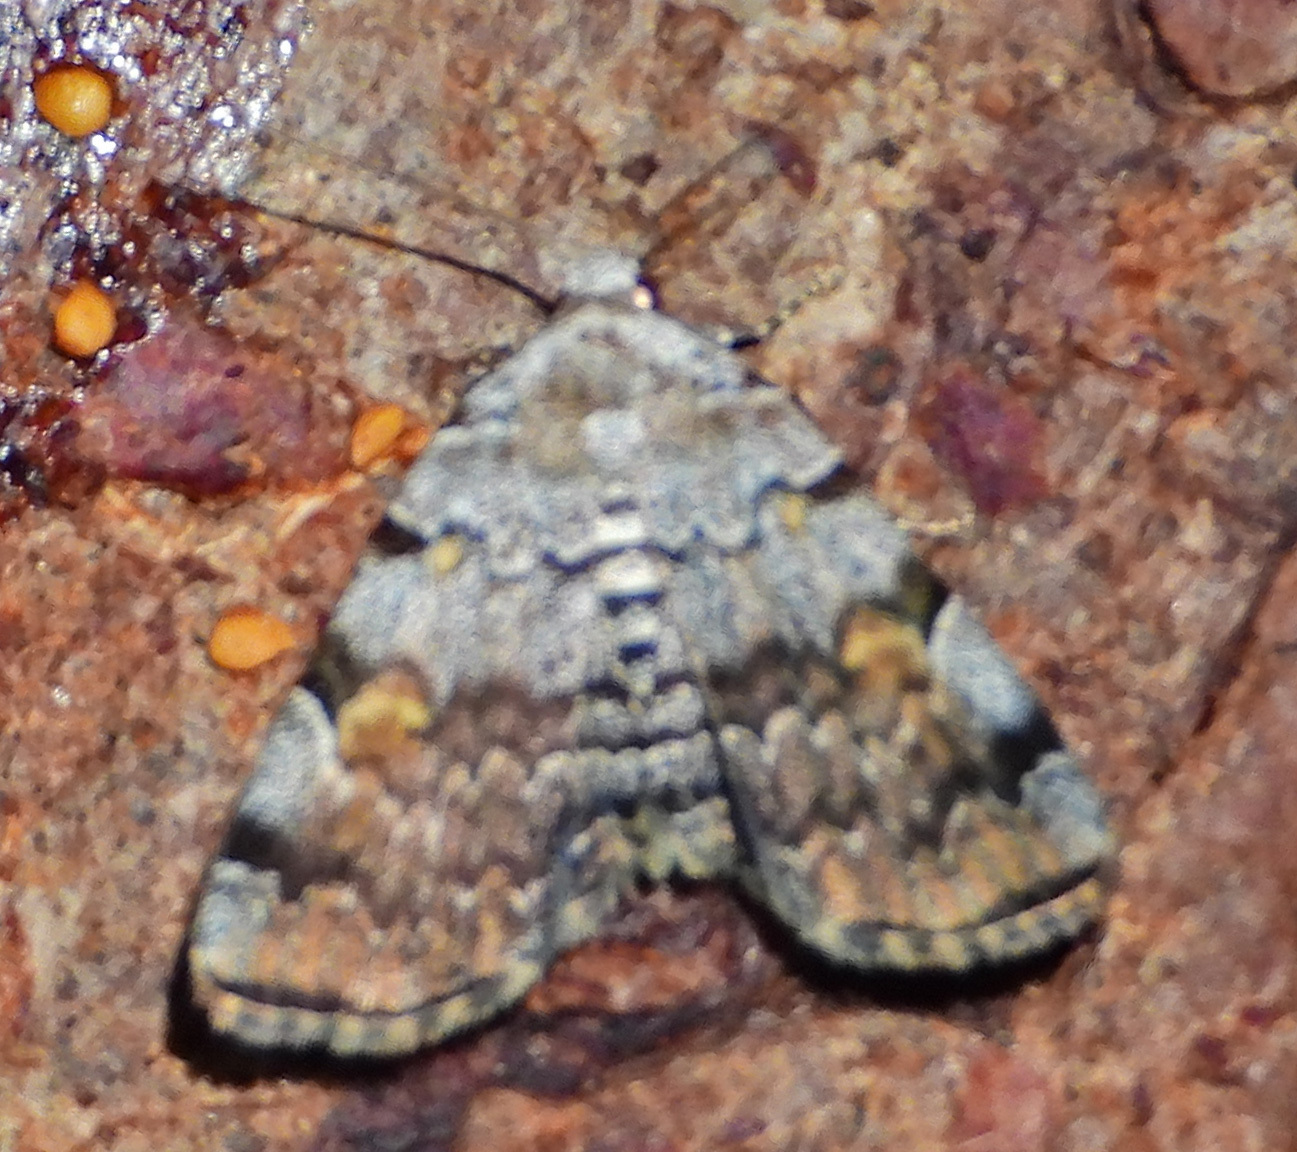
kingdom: Animalia
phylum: Arthropoda
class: Insecta
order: Lepidoptera
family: Erebidae
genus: Idia
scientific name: Idia americalis
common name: American idia moth
